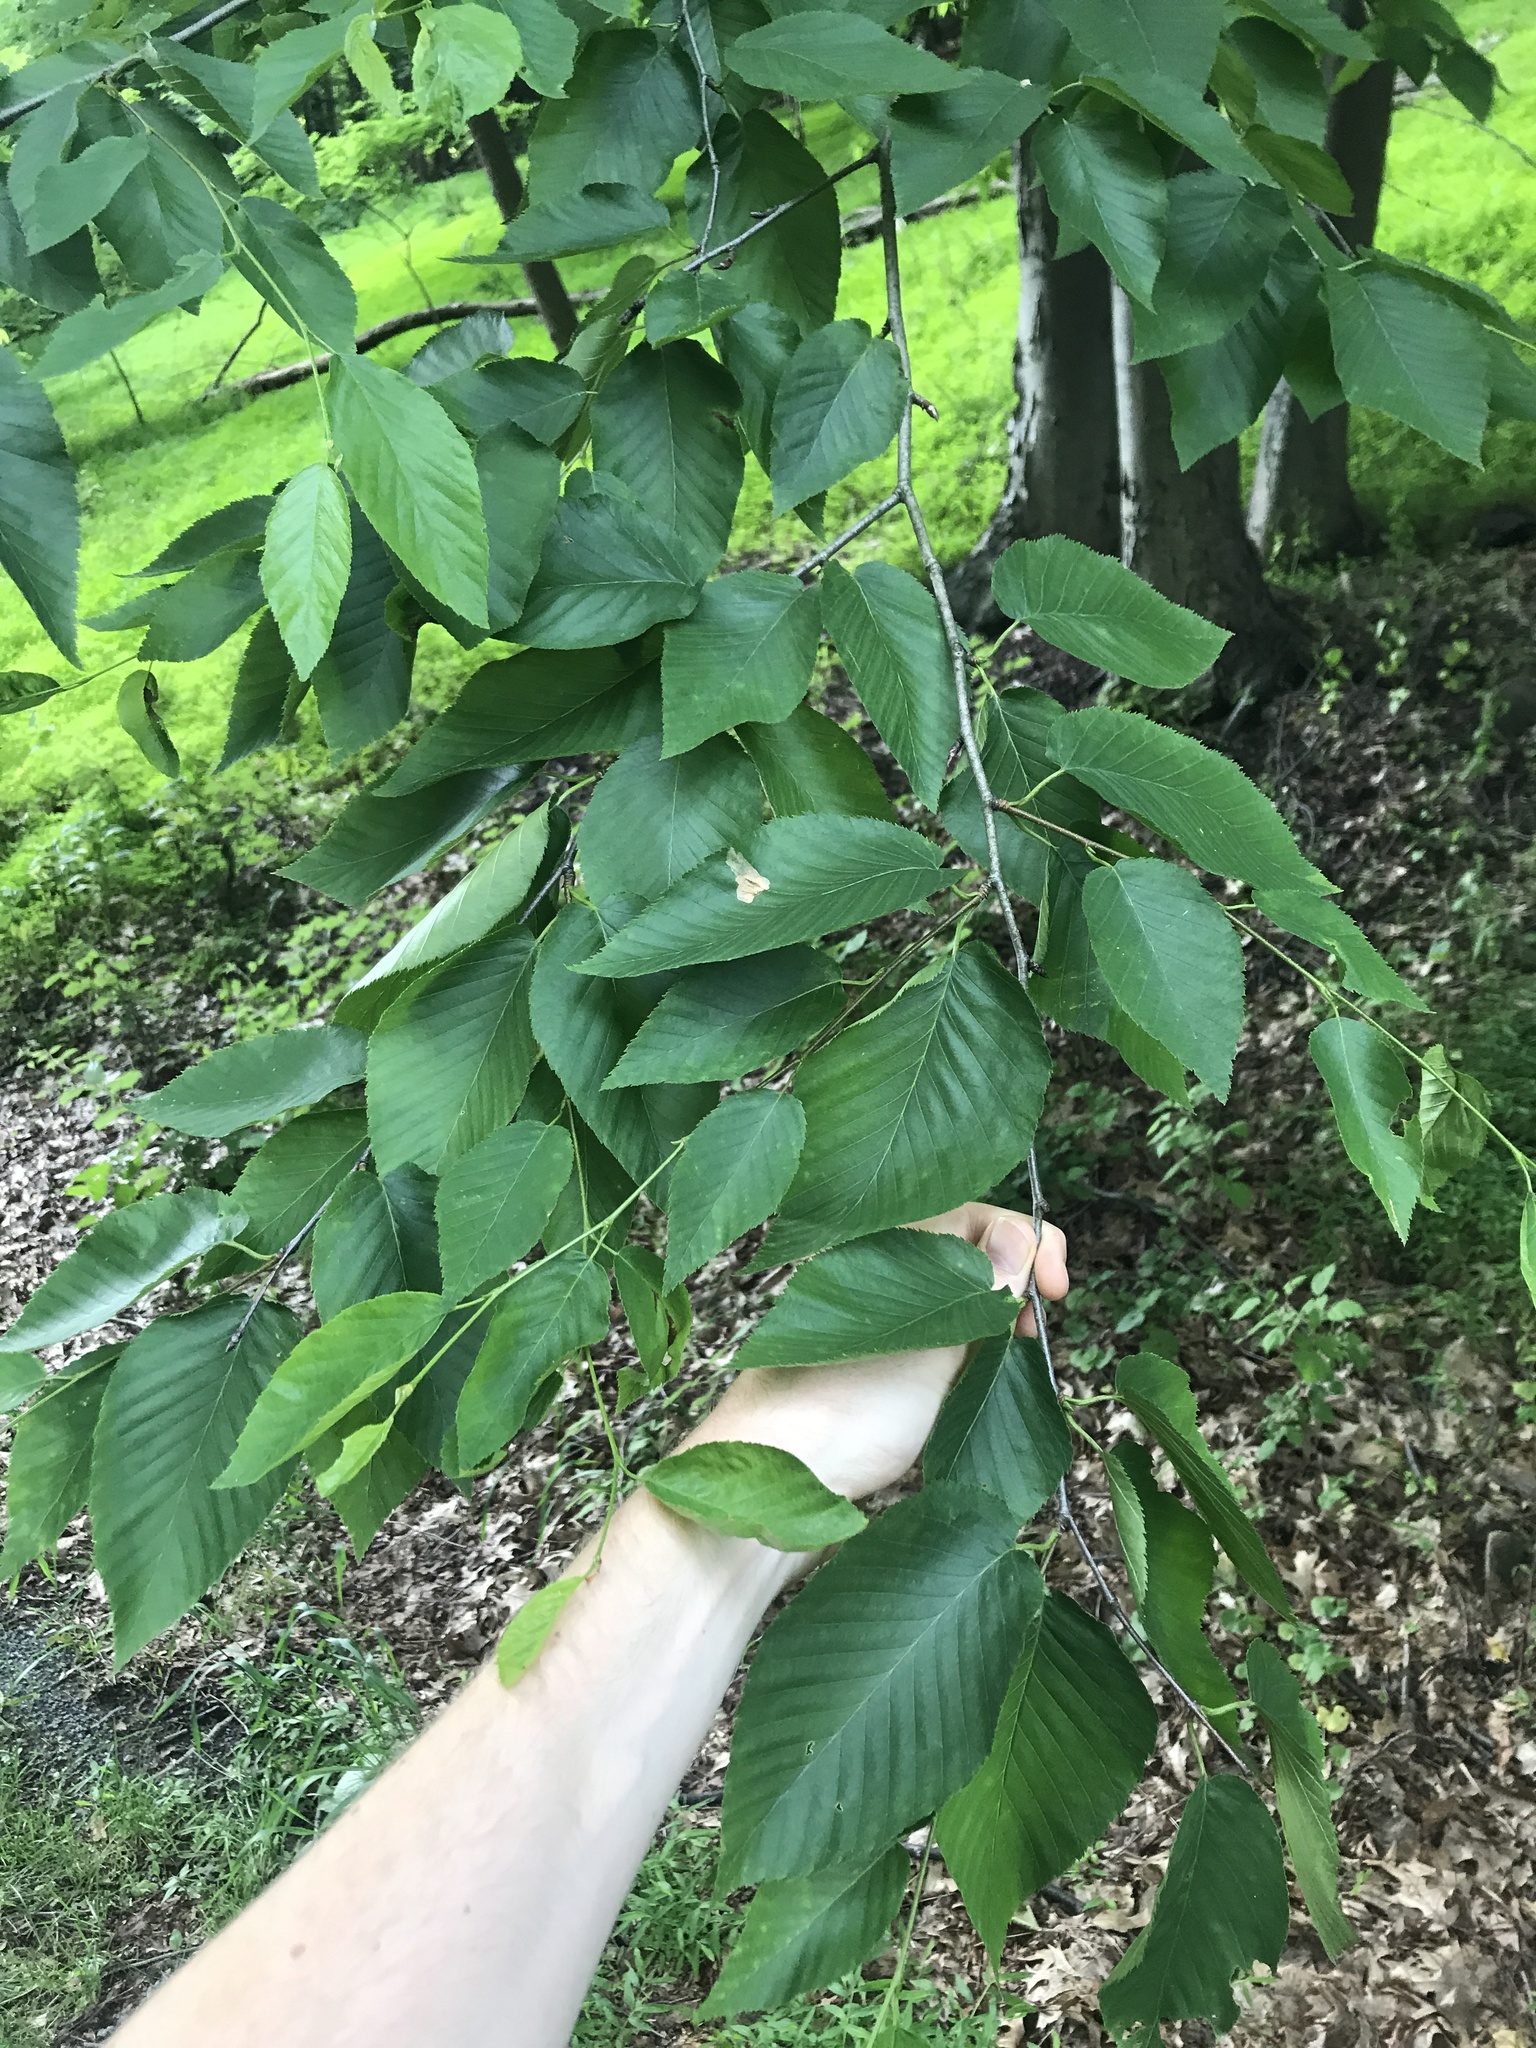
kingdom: Plantae
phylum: Tracheophyta
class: Magnoliopsida
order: Fagales
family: Betulaceae
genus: Betula
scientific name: Betula lenta
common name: Black birch
